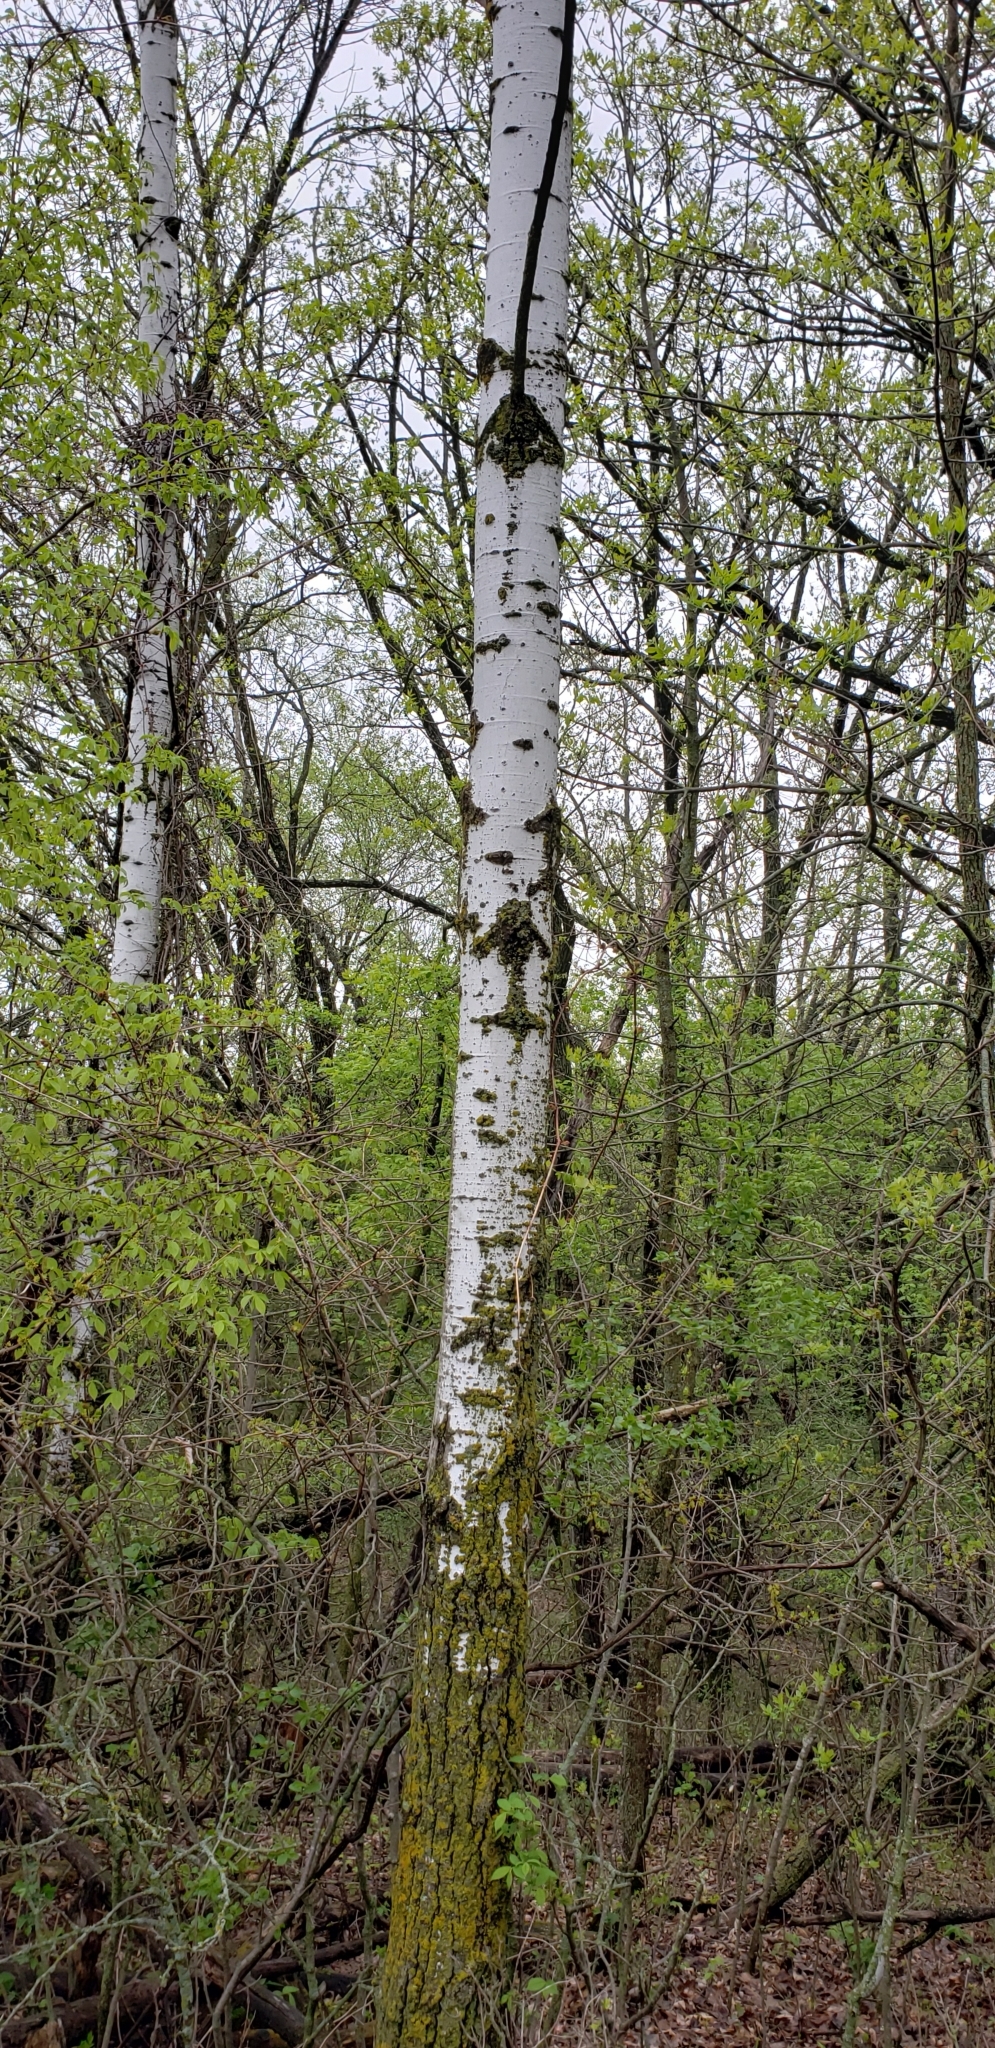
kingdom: Plantae
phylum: Tracheophyta
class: Magnoliopsida
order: Malpighiales
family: Salicaceae
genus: Populus
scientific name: Populus tremuloides
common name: Quaking aspen
